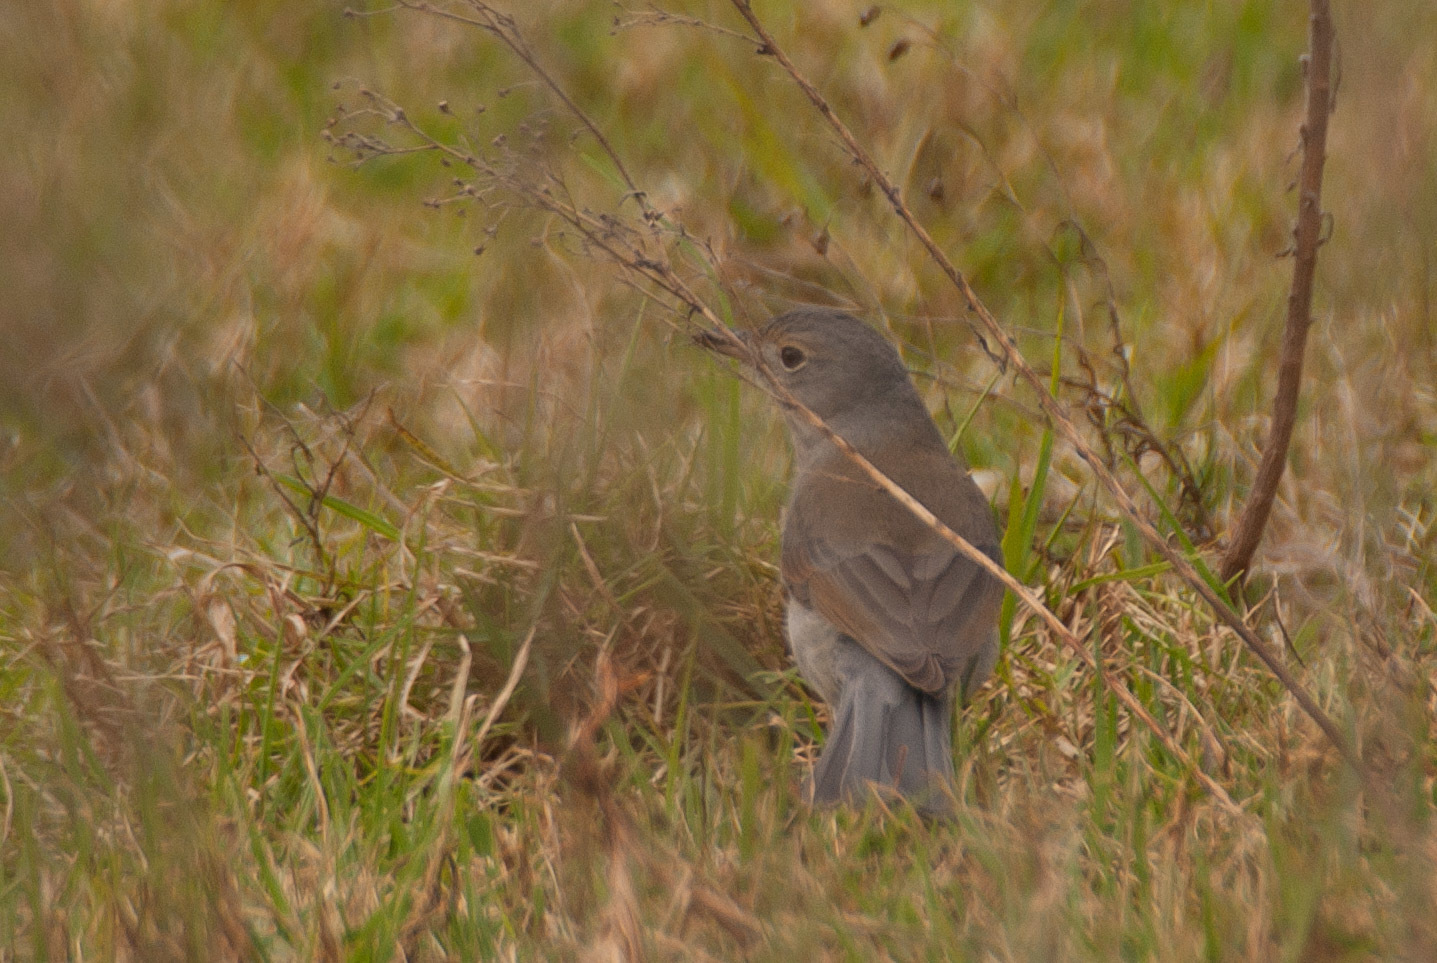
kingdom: Animalia
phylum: Chordata
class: Aves
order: Passeriformes
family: Pachycephalidae
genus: Colluricincla
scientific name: Colluricincla harmonica
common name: Grey shrikethrush
